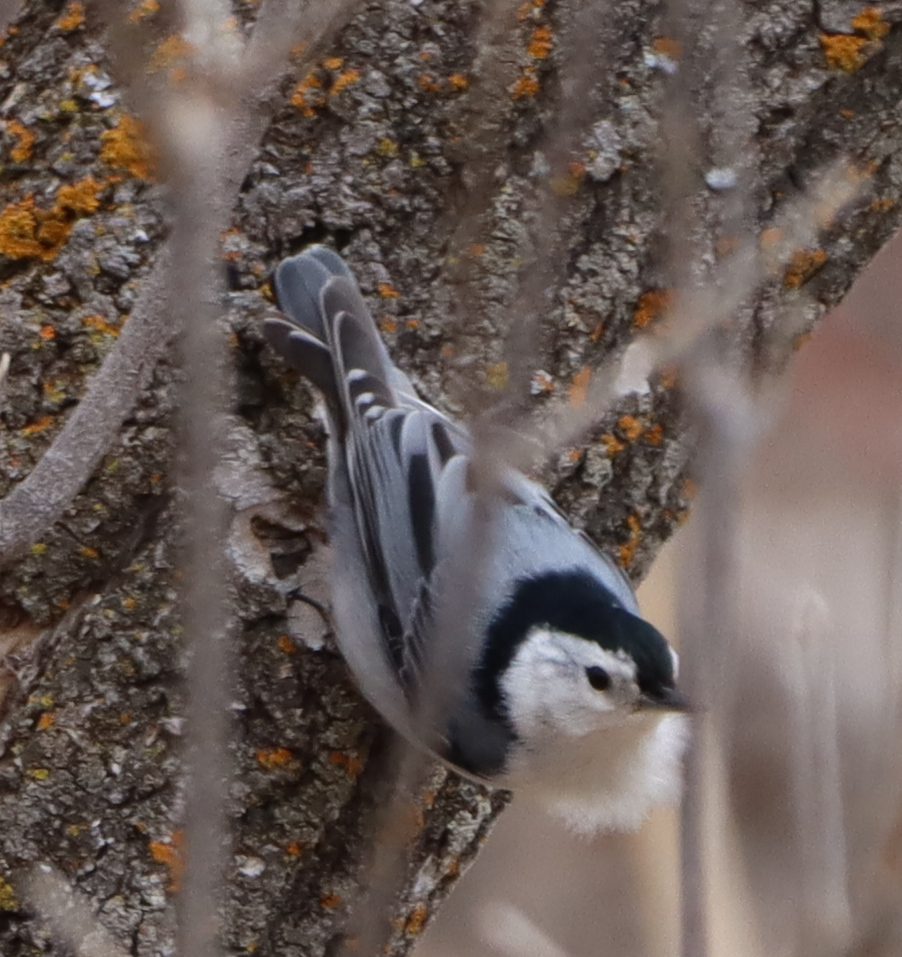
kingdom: Animalia
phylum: Chordata
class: Aves
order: Passeriformes
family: Sittidae
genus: Sitta
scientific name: Sitta carolinensis
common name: White-breasted nuthatch
